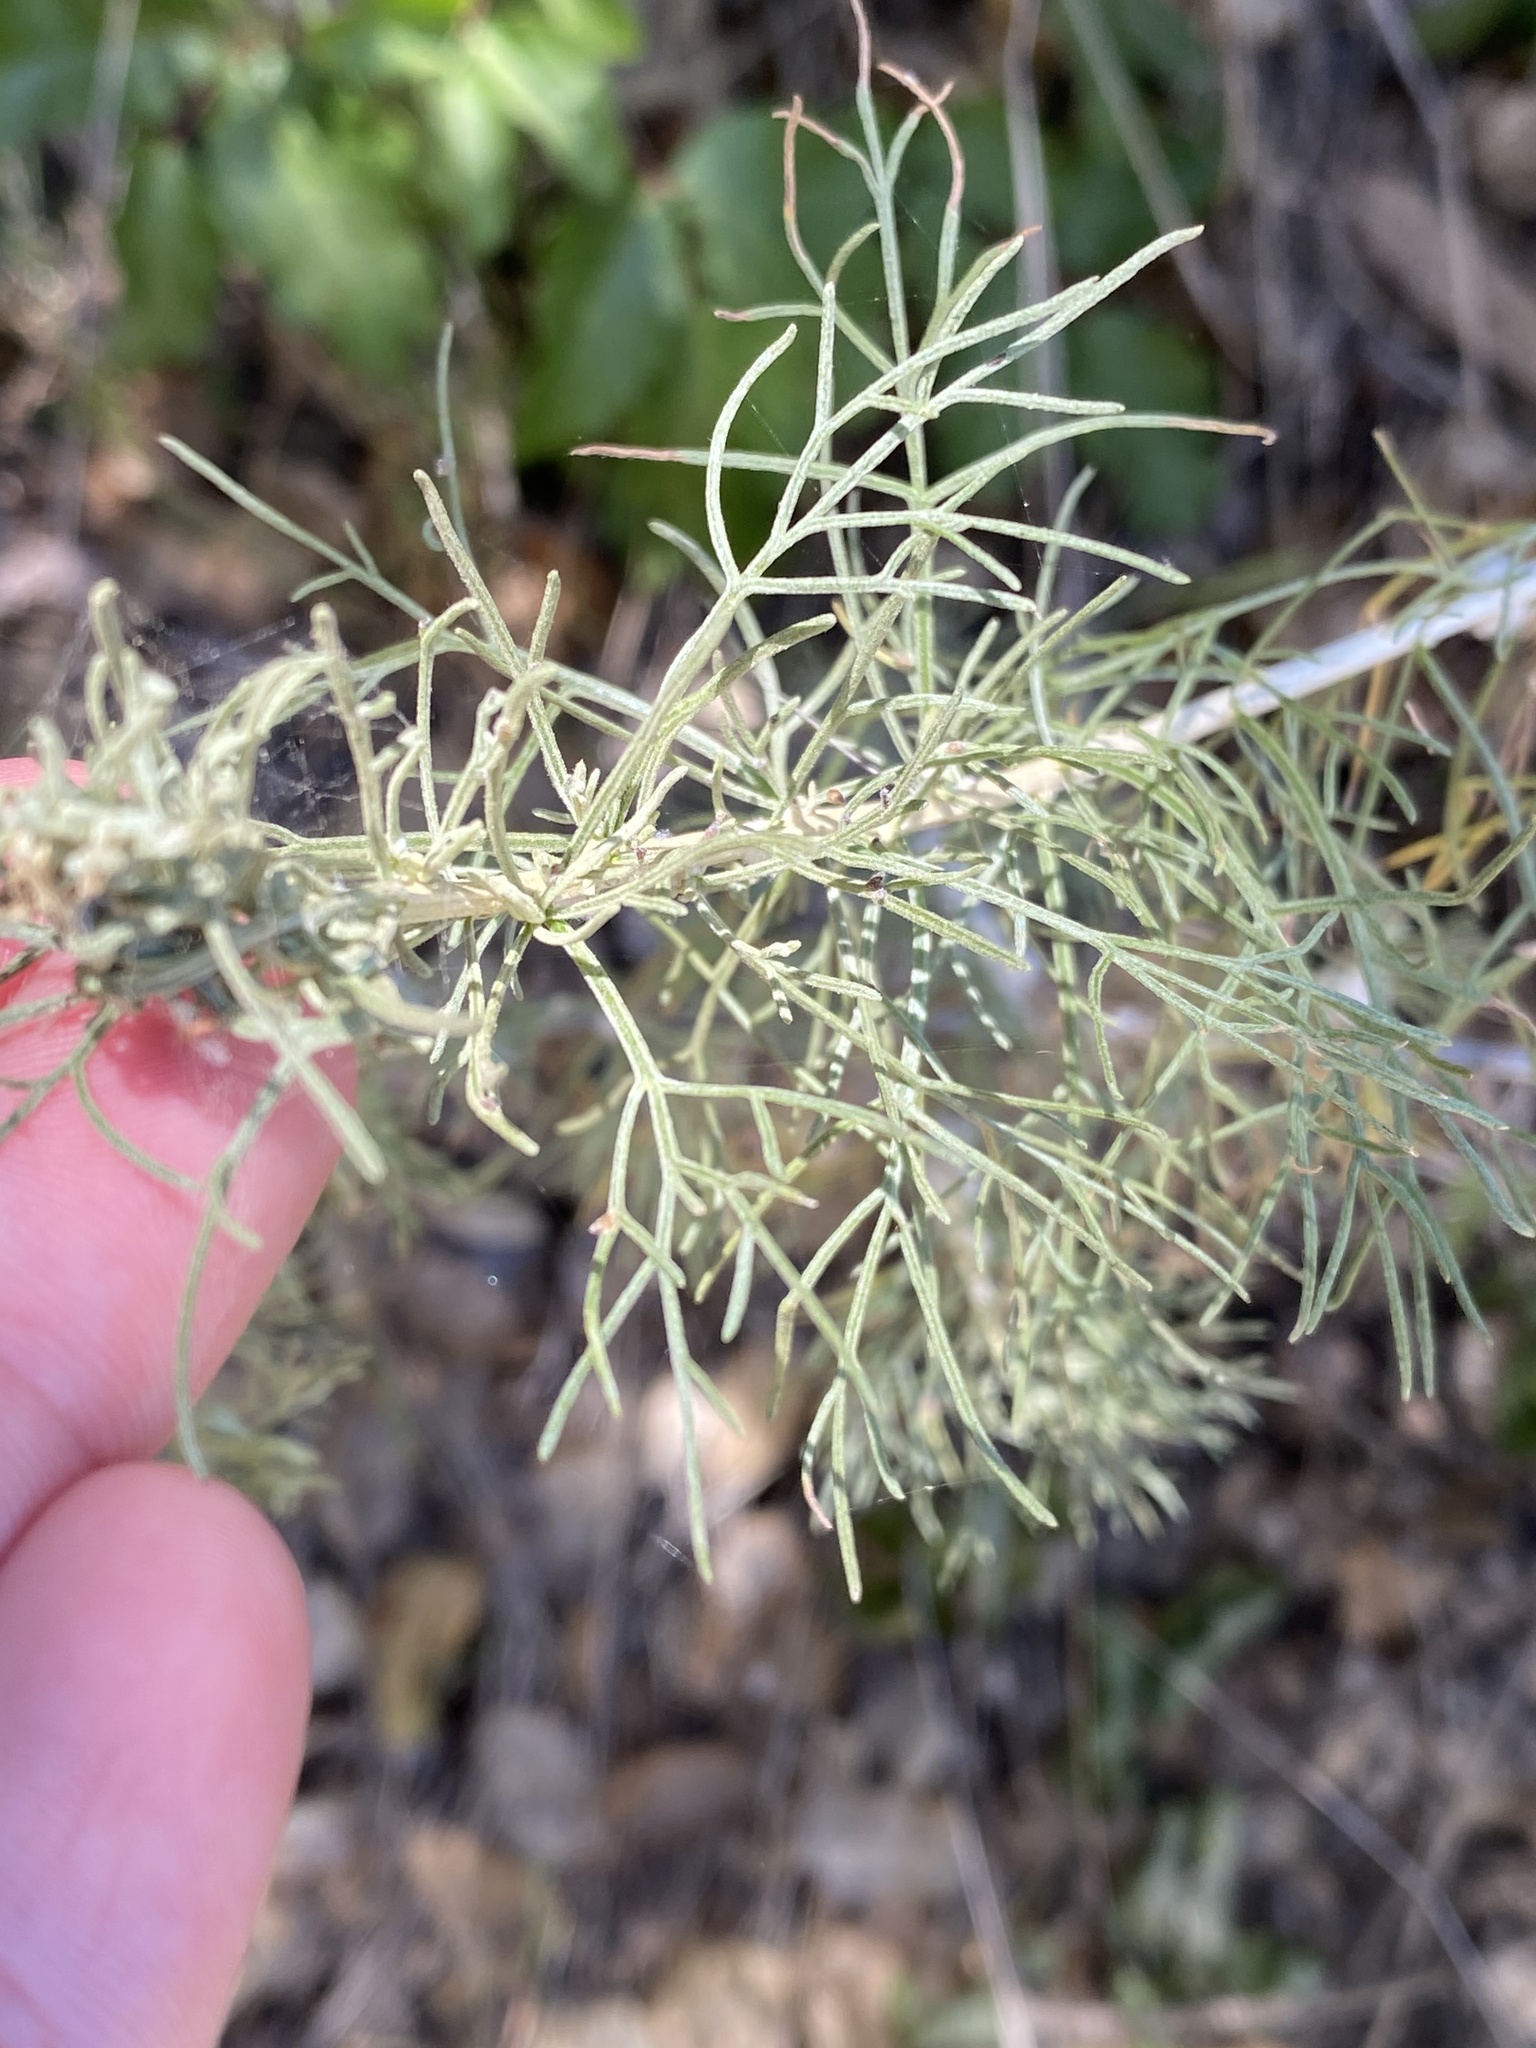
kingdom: Plantae
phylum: Tracheophyta
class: Magnoliopsida
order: Asterales
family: Asteraceae
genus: Artemisia
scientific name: Artemisia californica
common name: California sagebrush
